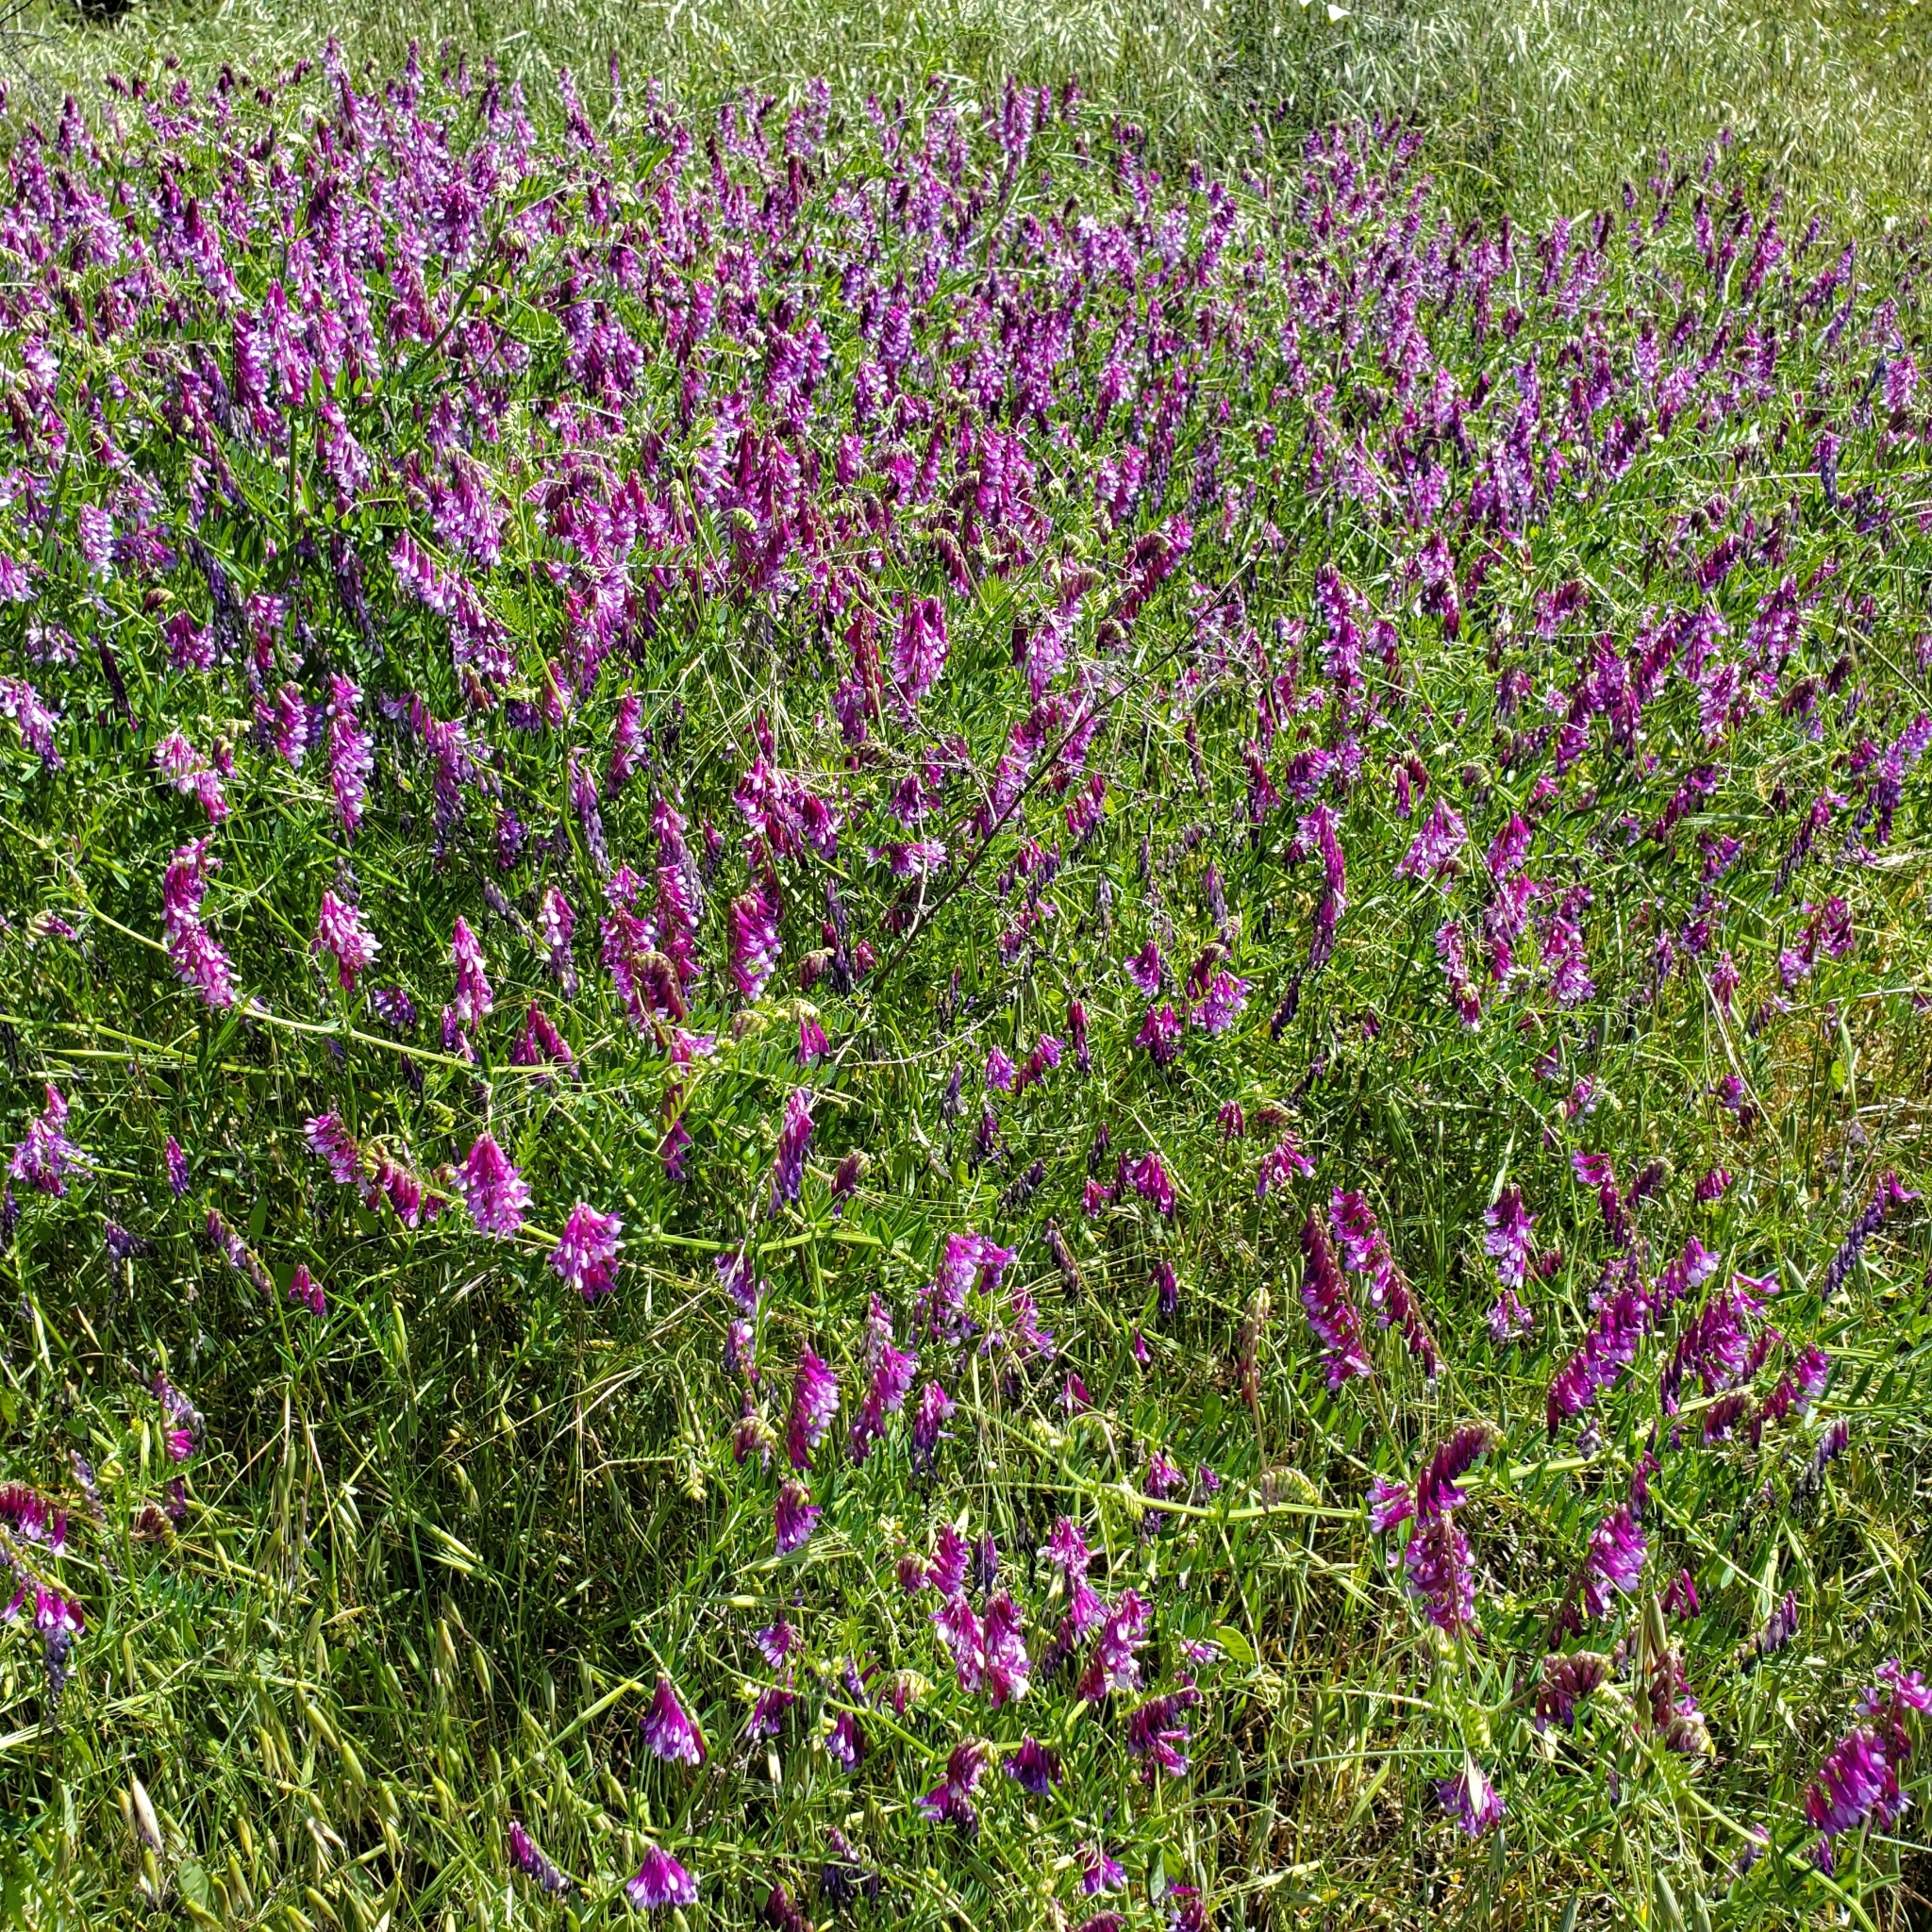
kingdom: Plantae
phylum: Tracheophyta
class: Magnoliopsida
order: Fabales
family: Fabaceae
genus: Vicia
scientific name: Vicia villosa
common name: Fodder vetch
